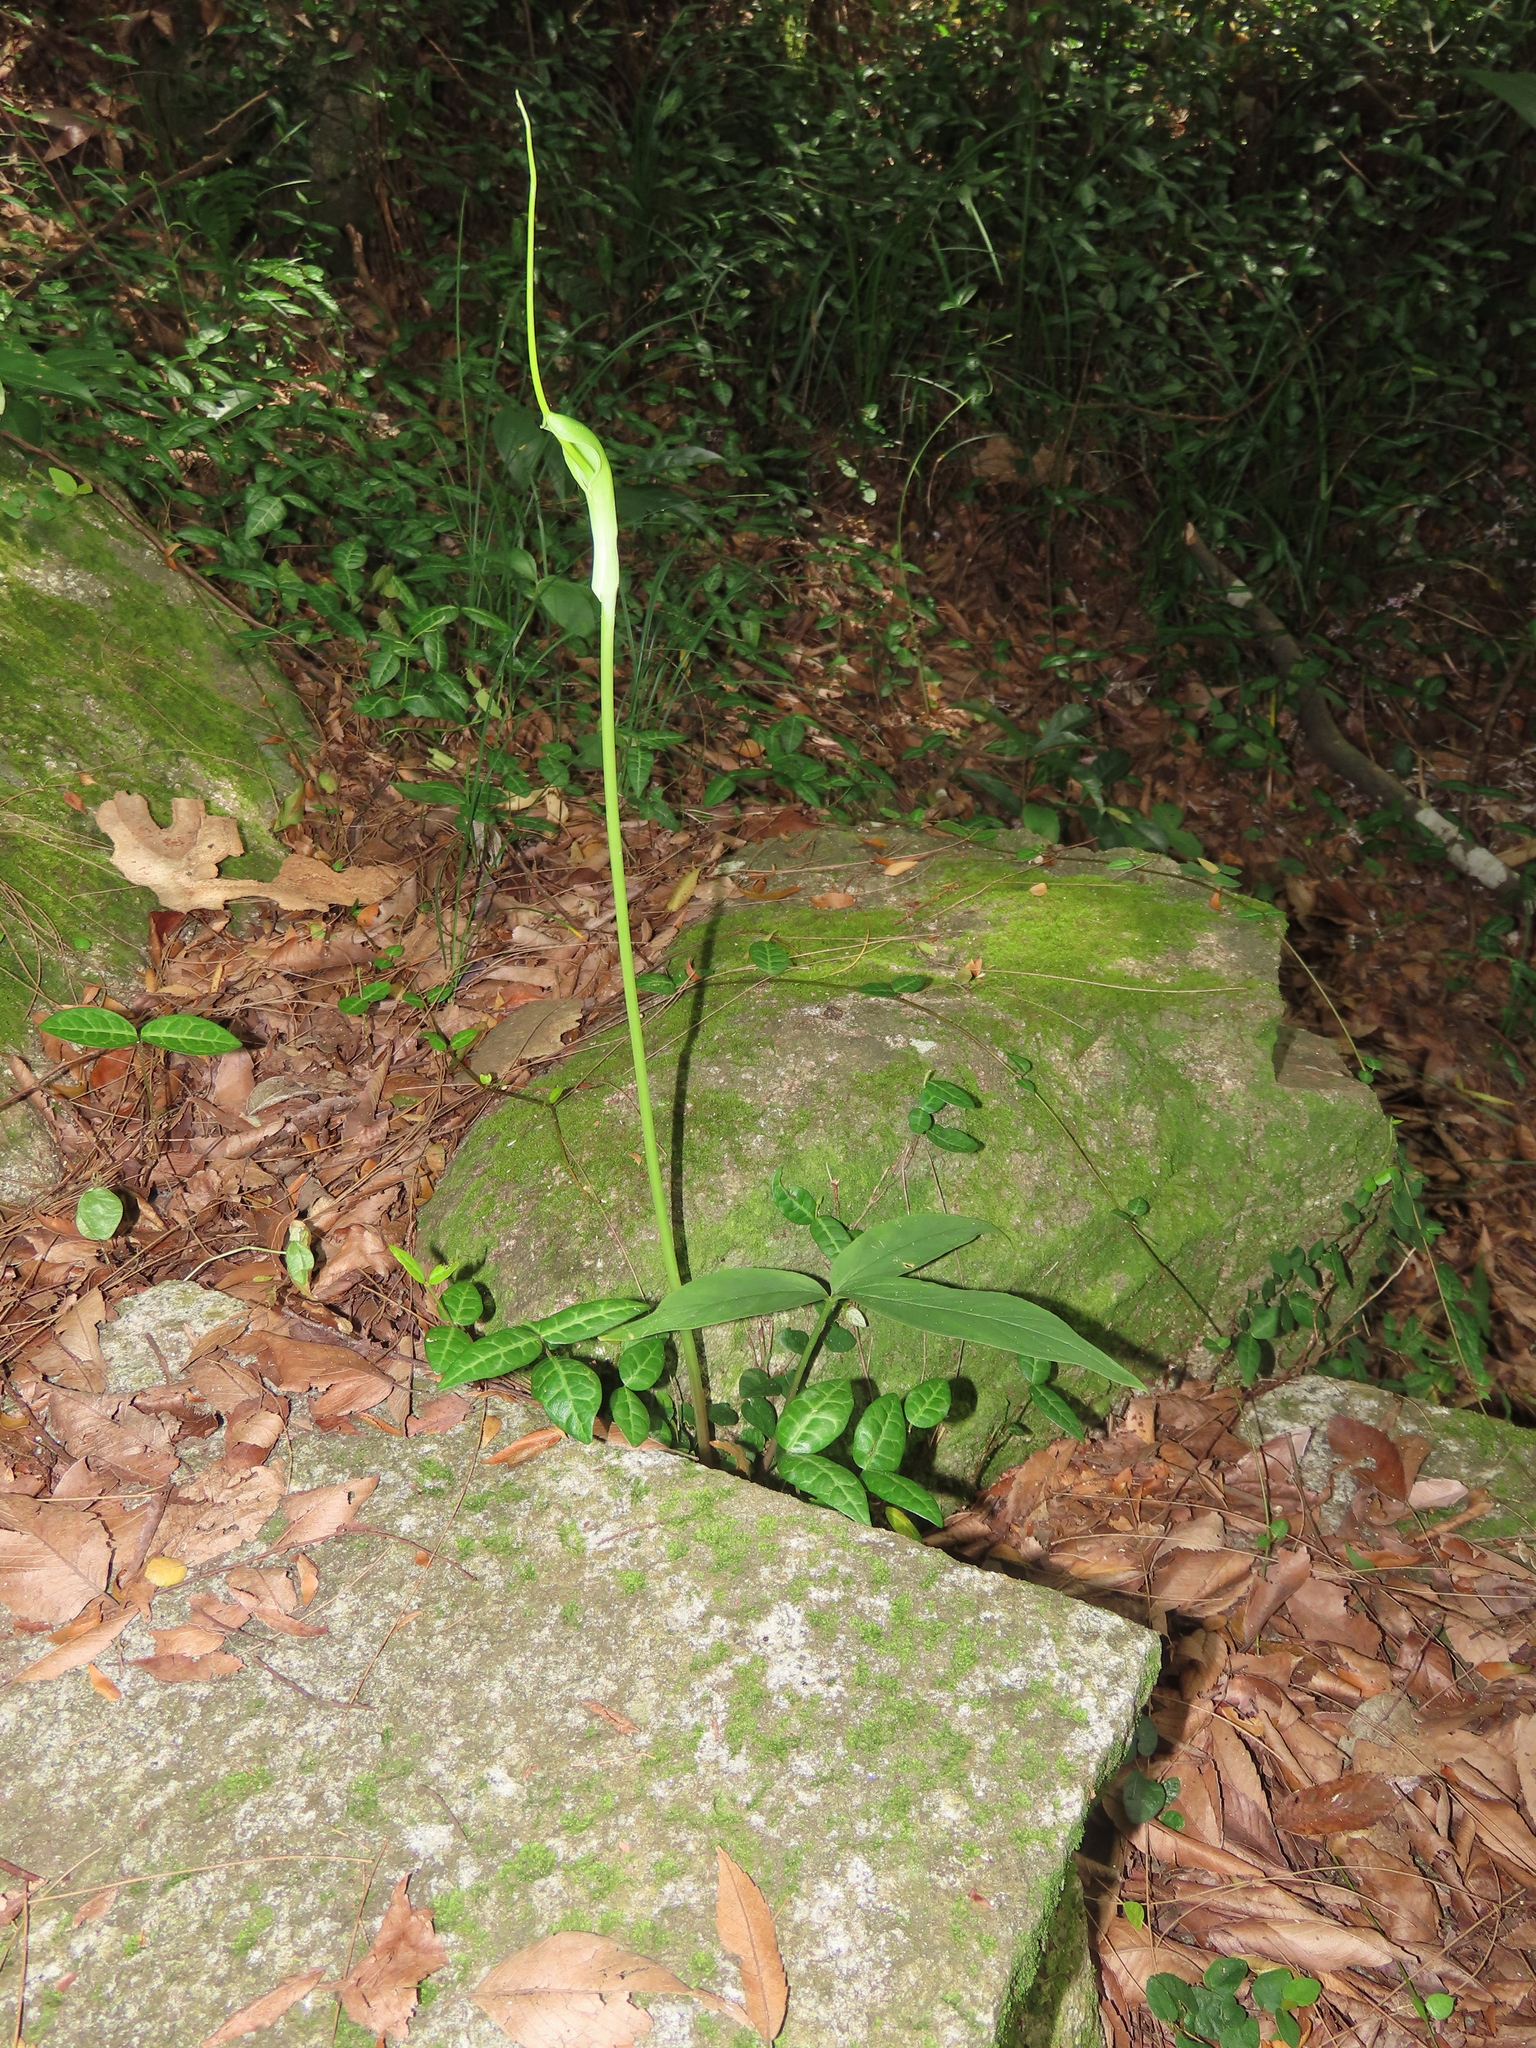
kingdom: Plantae
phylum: Tracheophyta
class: Liliopsida
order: Alismatales
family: Araceae
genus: Pinellia
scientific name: Pinellia ternata
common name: Pinellia
